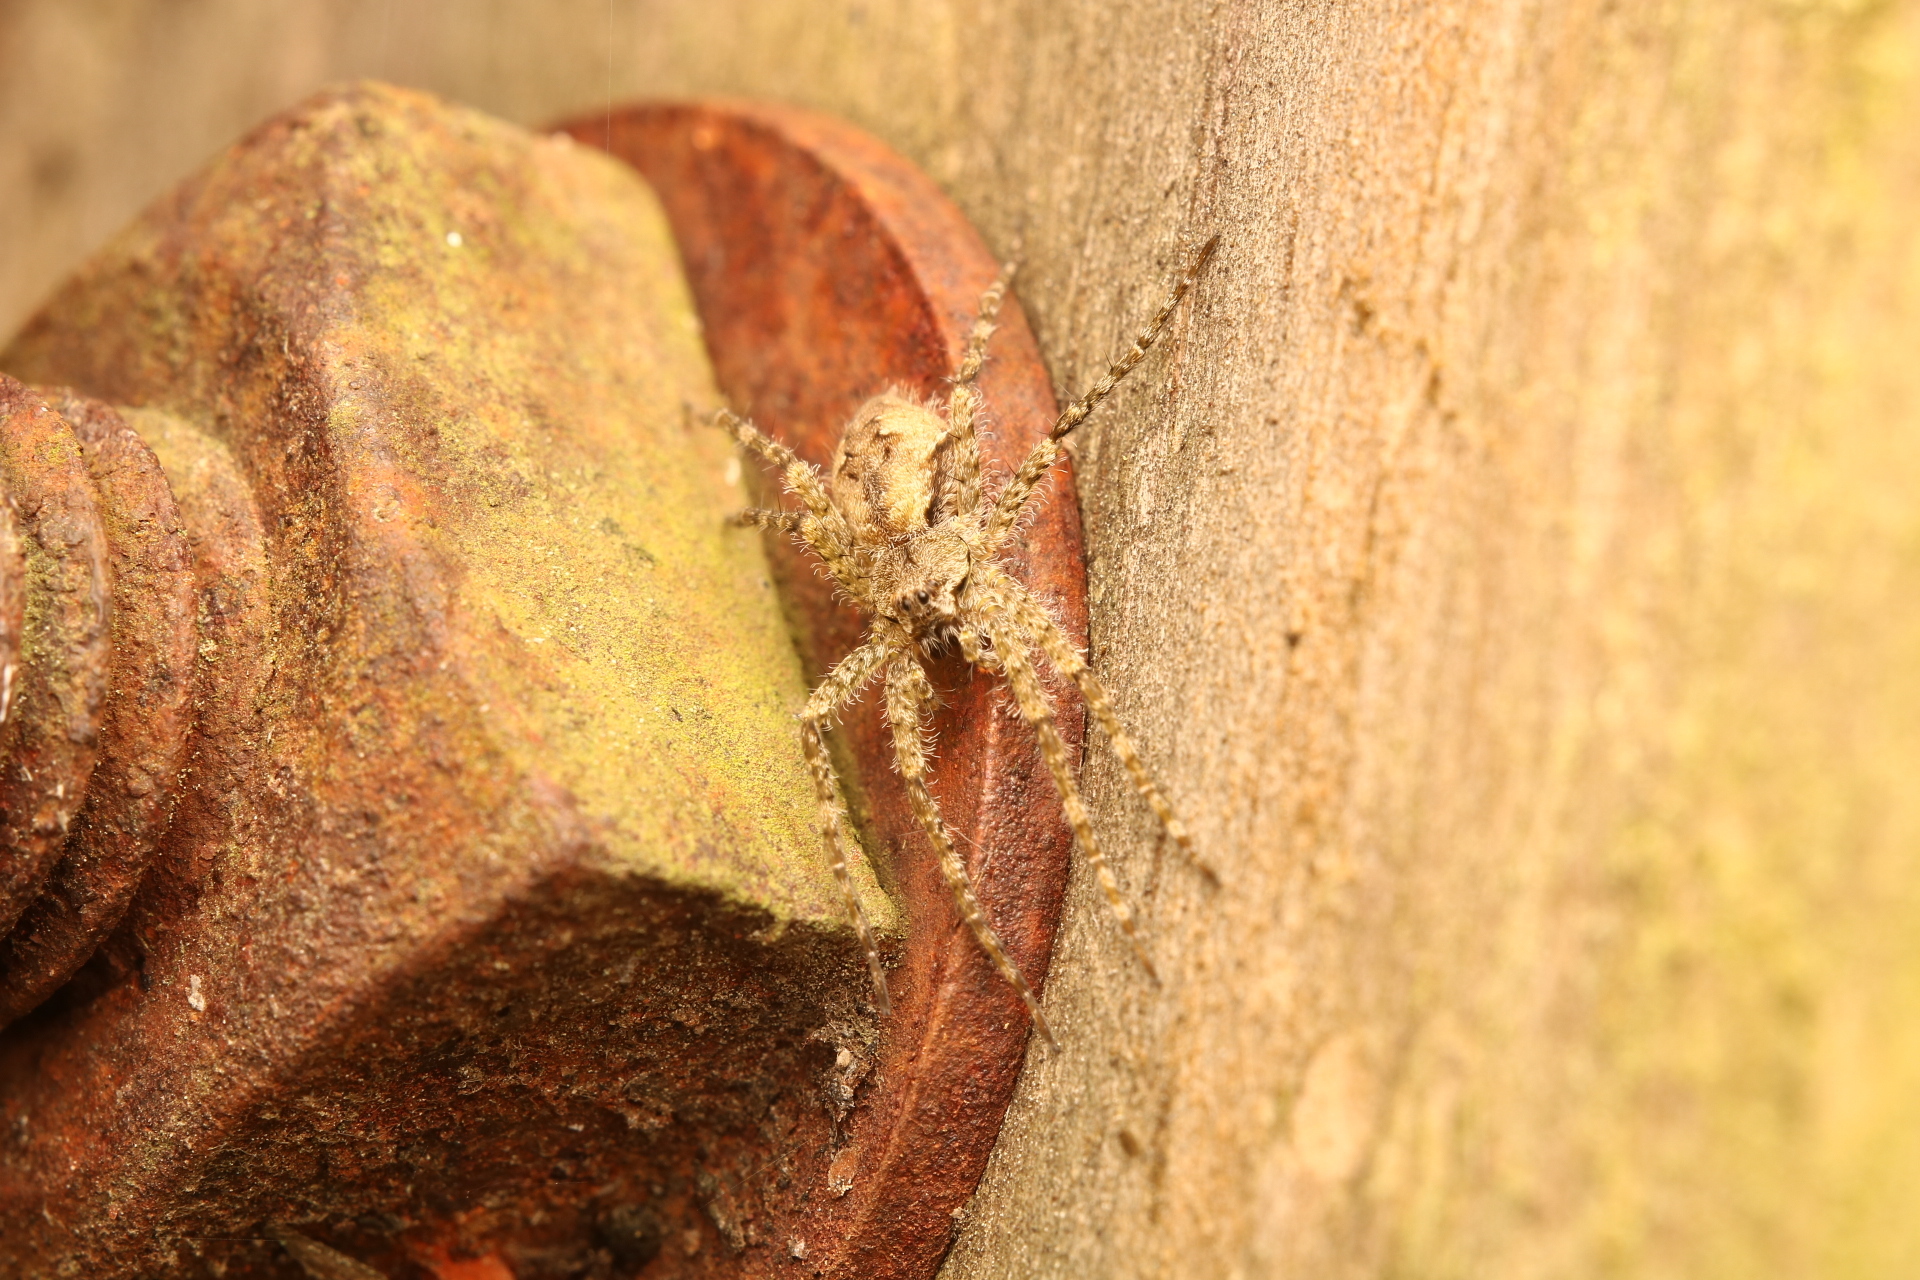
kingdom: Animalia
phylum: Arthropoda
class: Arachnida
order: Araneae
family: Pisauridae
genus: Dolomedes
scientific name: Dolomedes albineus
